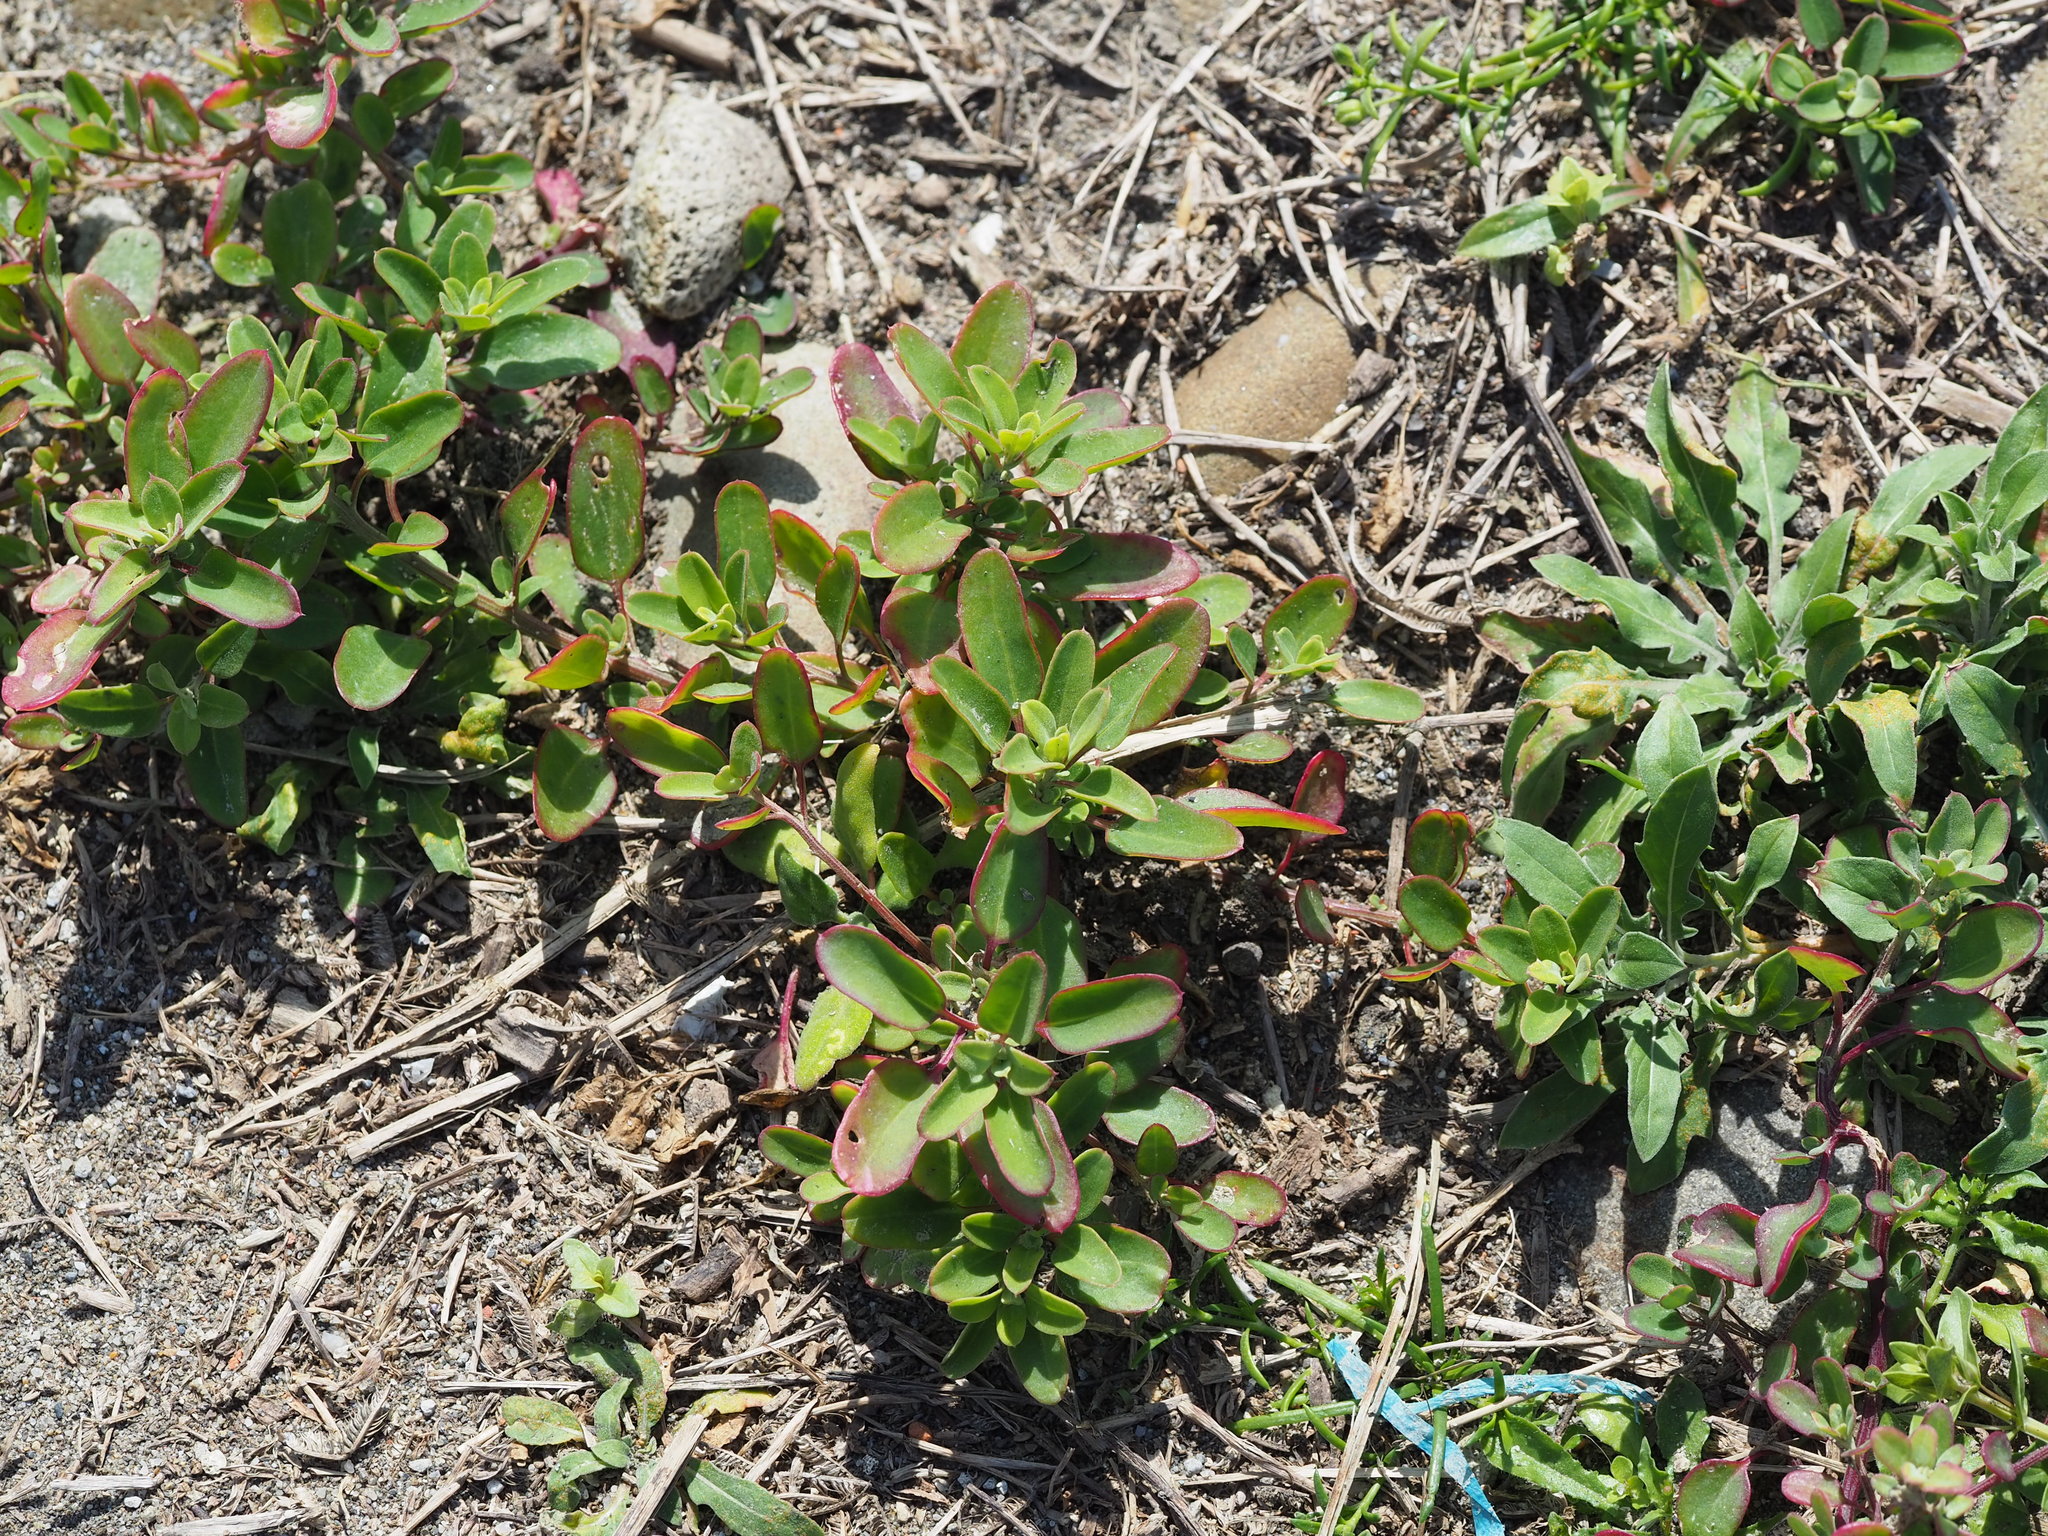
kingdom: Plantae
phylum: Tracheophyta
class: Magnoliopsida
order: Caryophyllales
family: Amaranthaceae
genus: Chenopodium
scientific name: Chenopodium acuminatum
